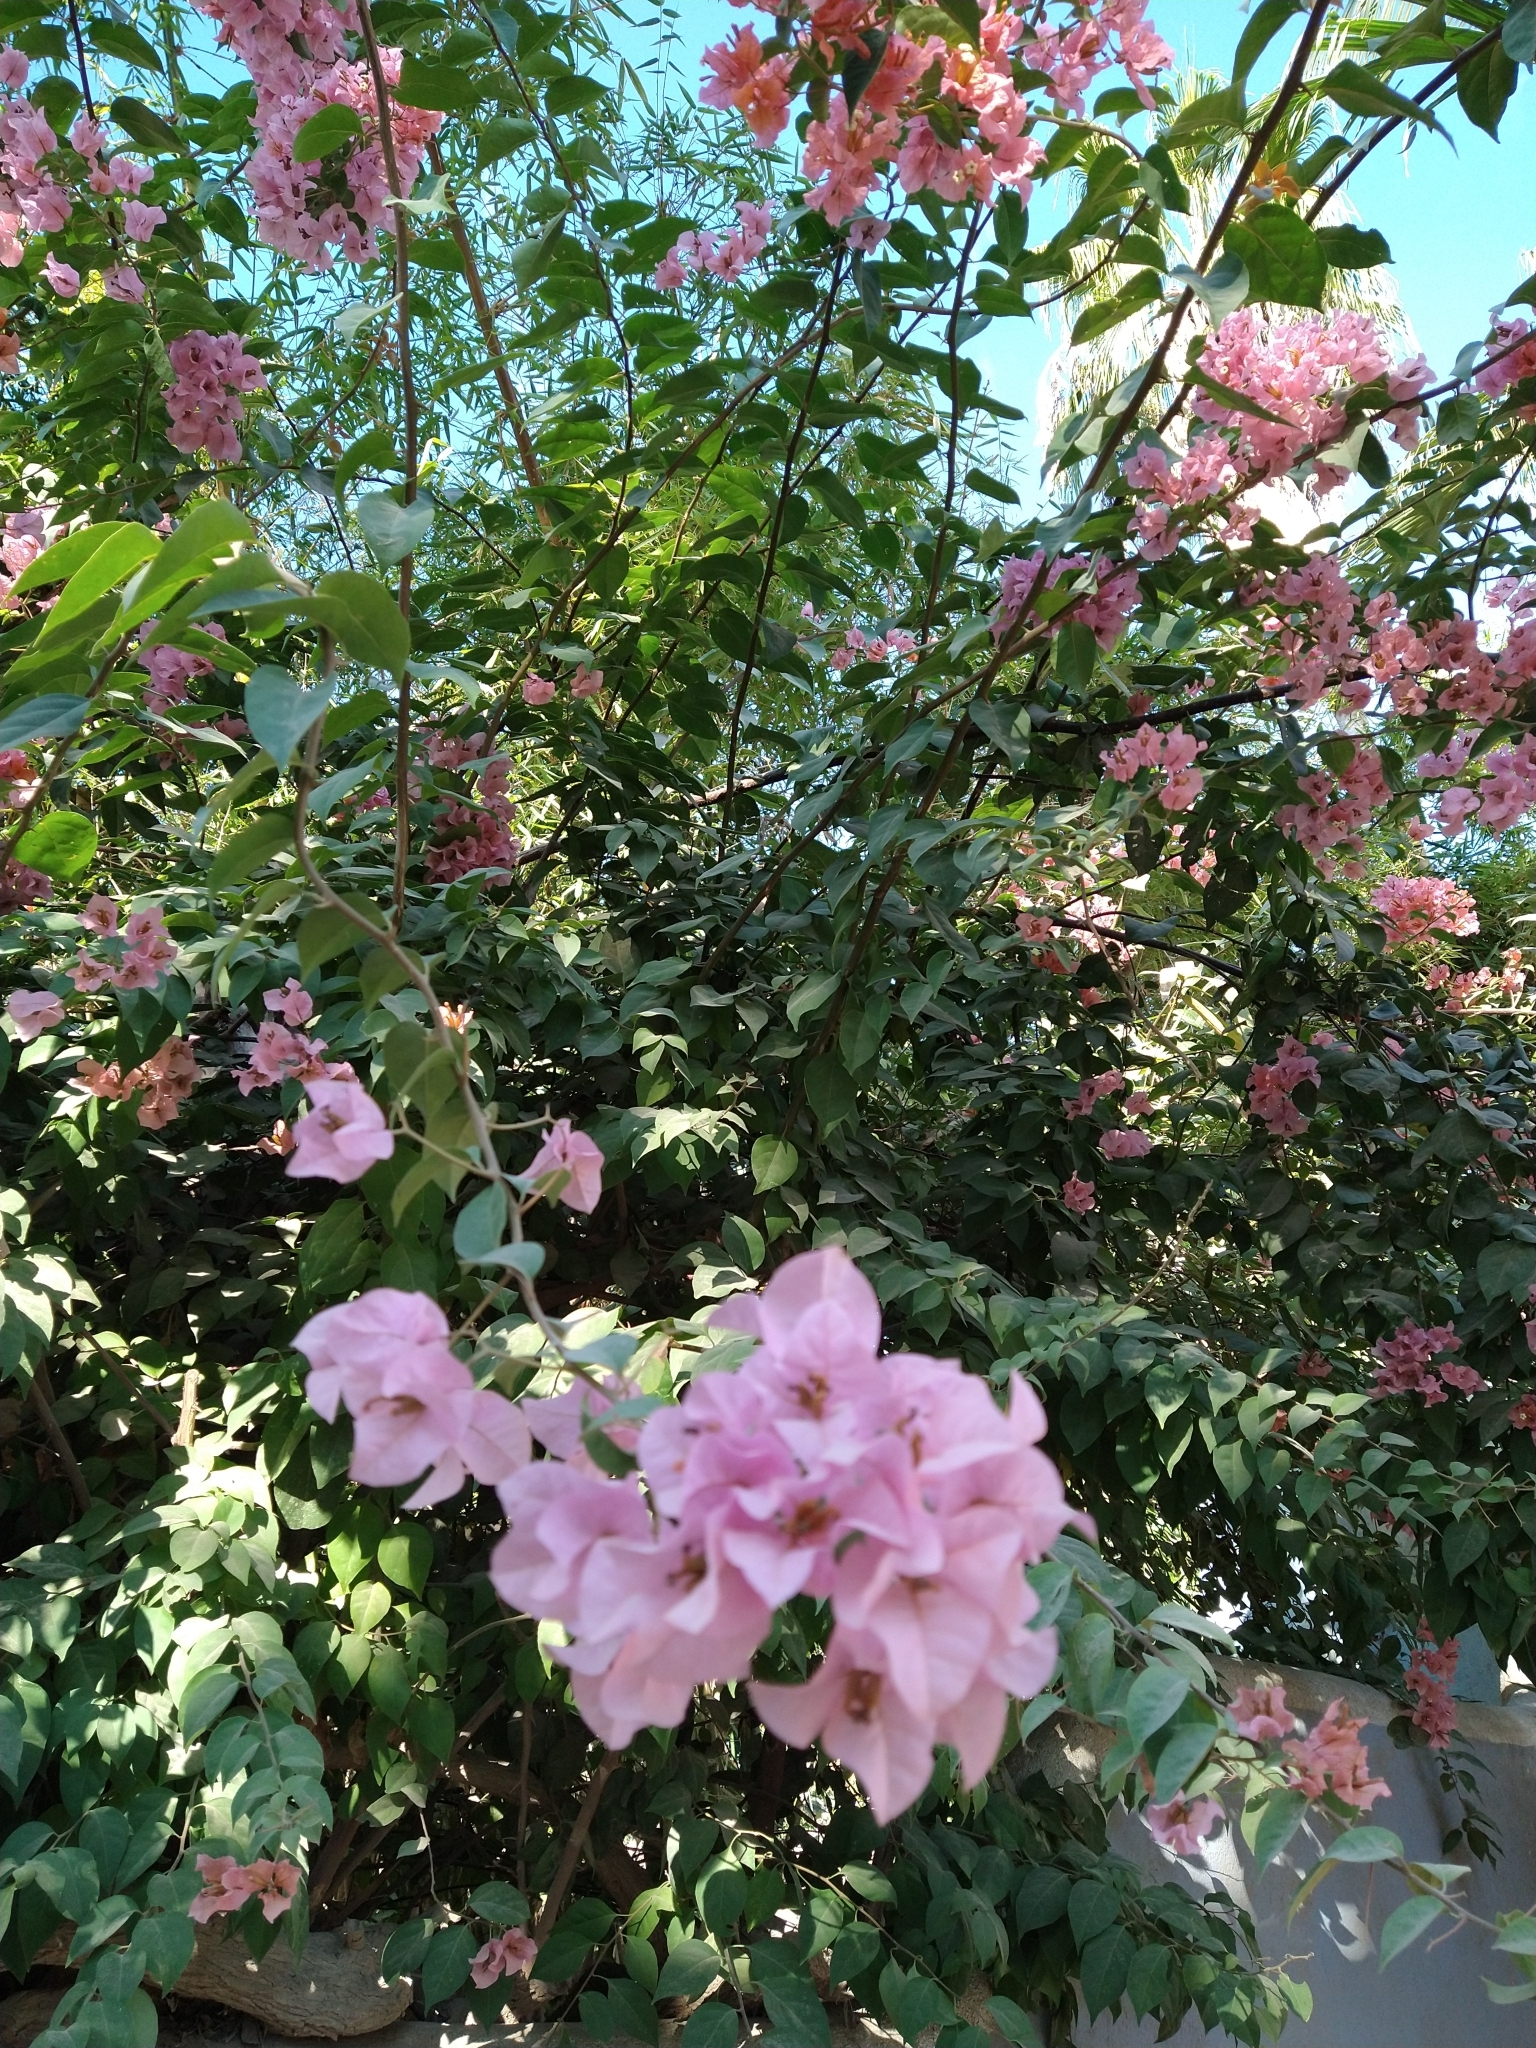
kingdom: Plantae
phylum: Tracheophyta
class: Magnoliopsida
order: Lamiales
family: Bignoniaceae
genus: Tabebuia
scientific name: Tabebuia rosea
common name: Pink poui
